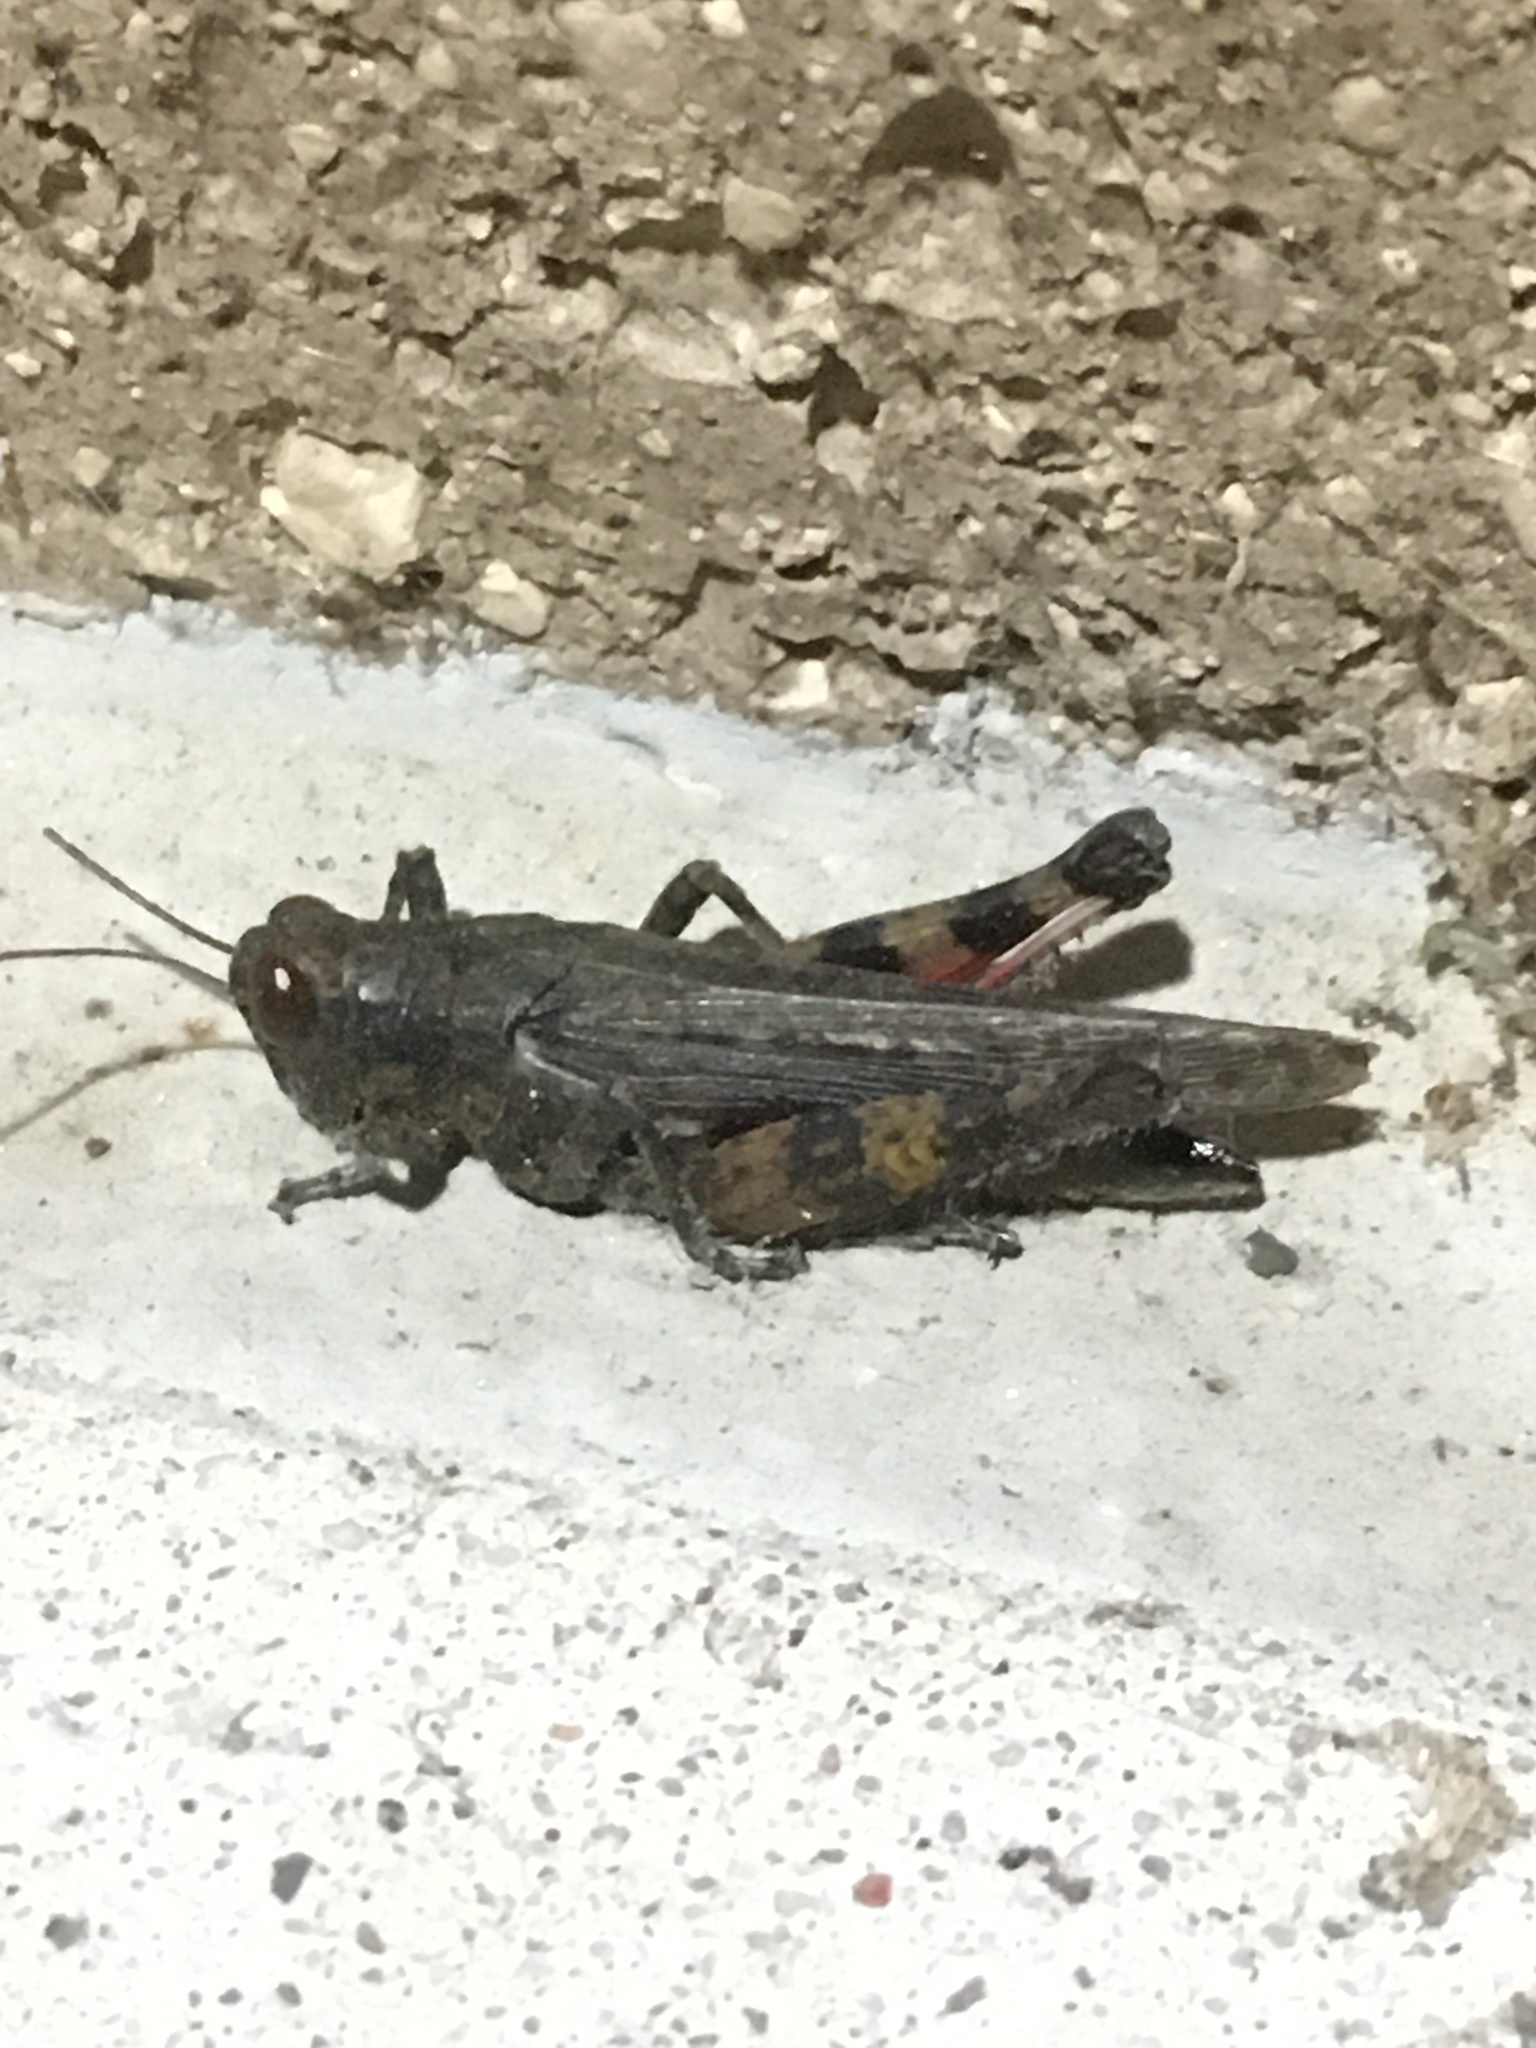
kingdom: Animalia
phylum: Arthropoda
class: Insecta
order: Orthoptera
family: Acrididae
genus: Melanoplus
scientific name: Melanoplus punctulatus
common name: Pine-tree spur-throat grasshopper
